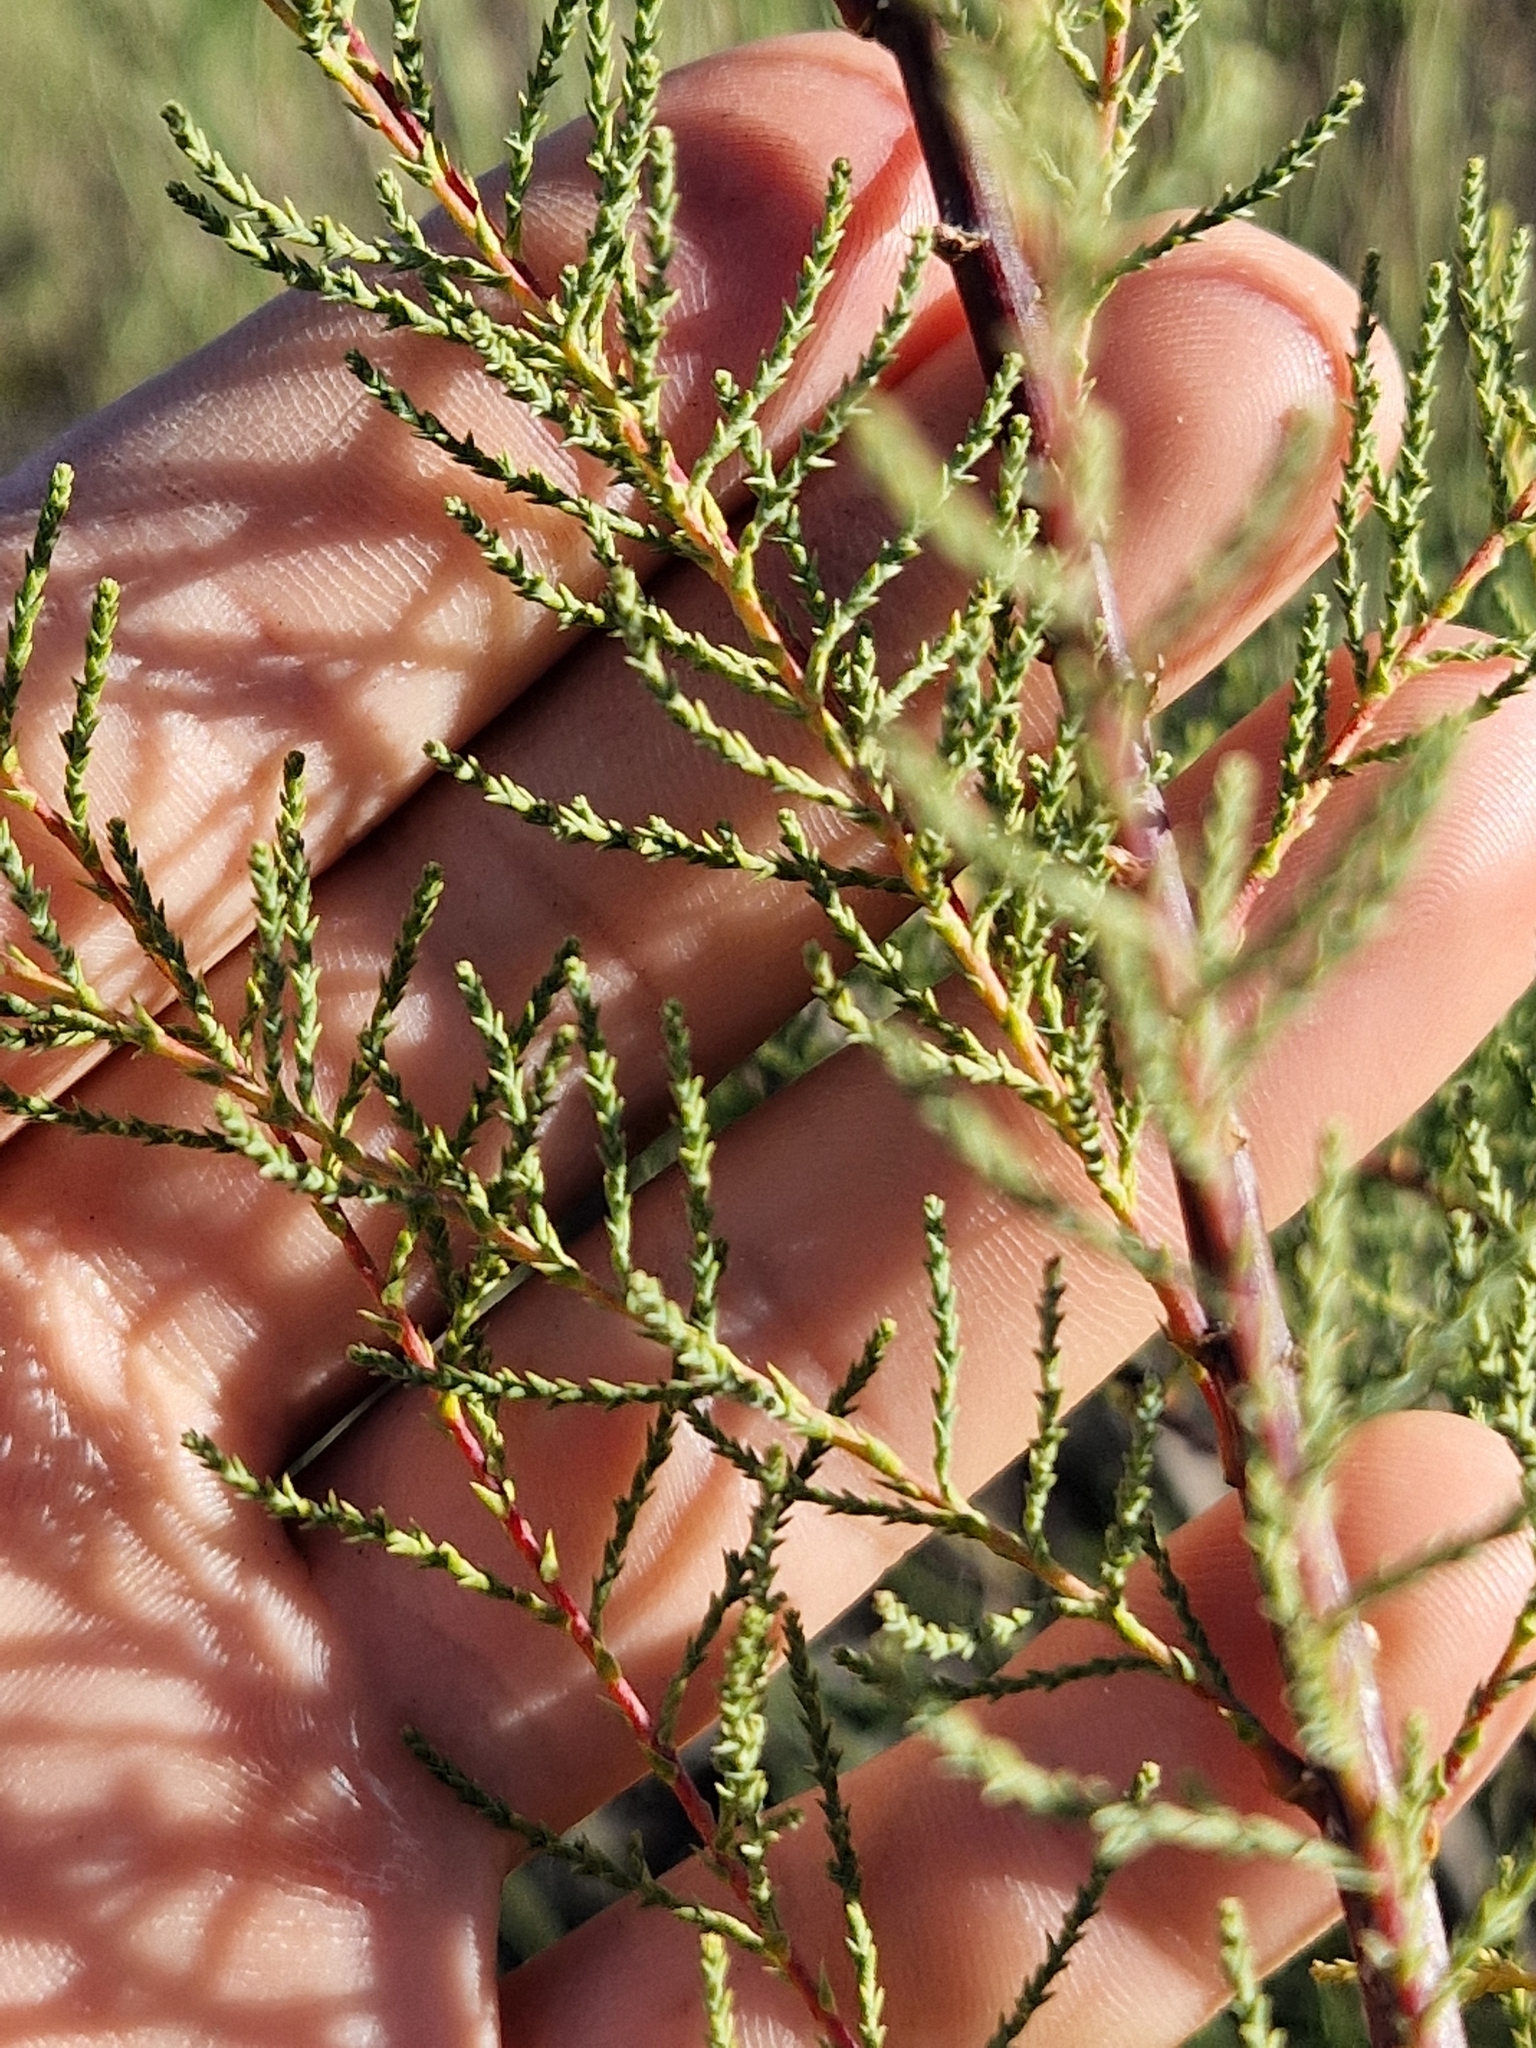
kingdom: Plantae
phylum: Tracheophyta
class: Magnoliopsida
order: Caryophyllales
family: Tamaricaceae
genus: Tamarix
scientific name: Tamarix chinensis
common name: Chinese tamarisk
